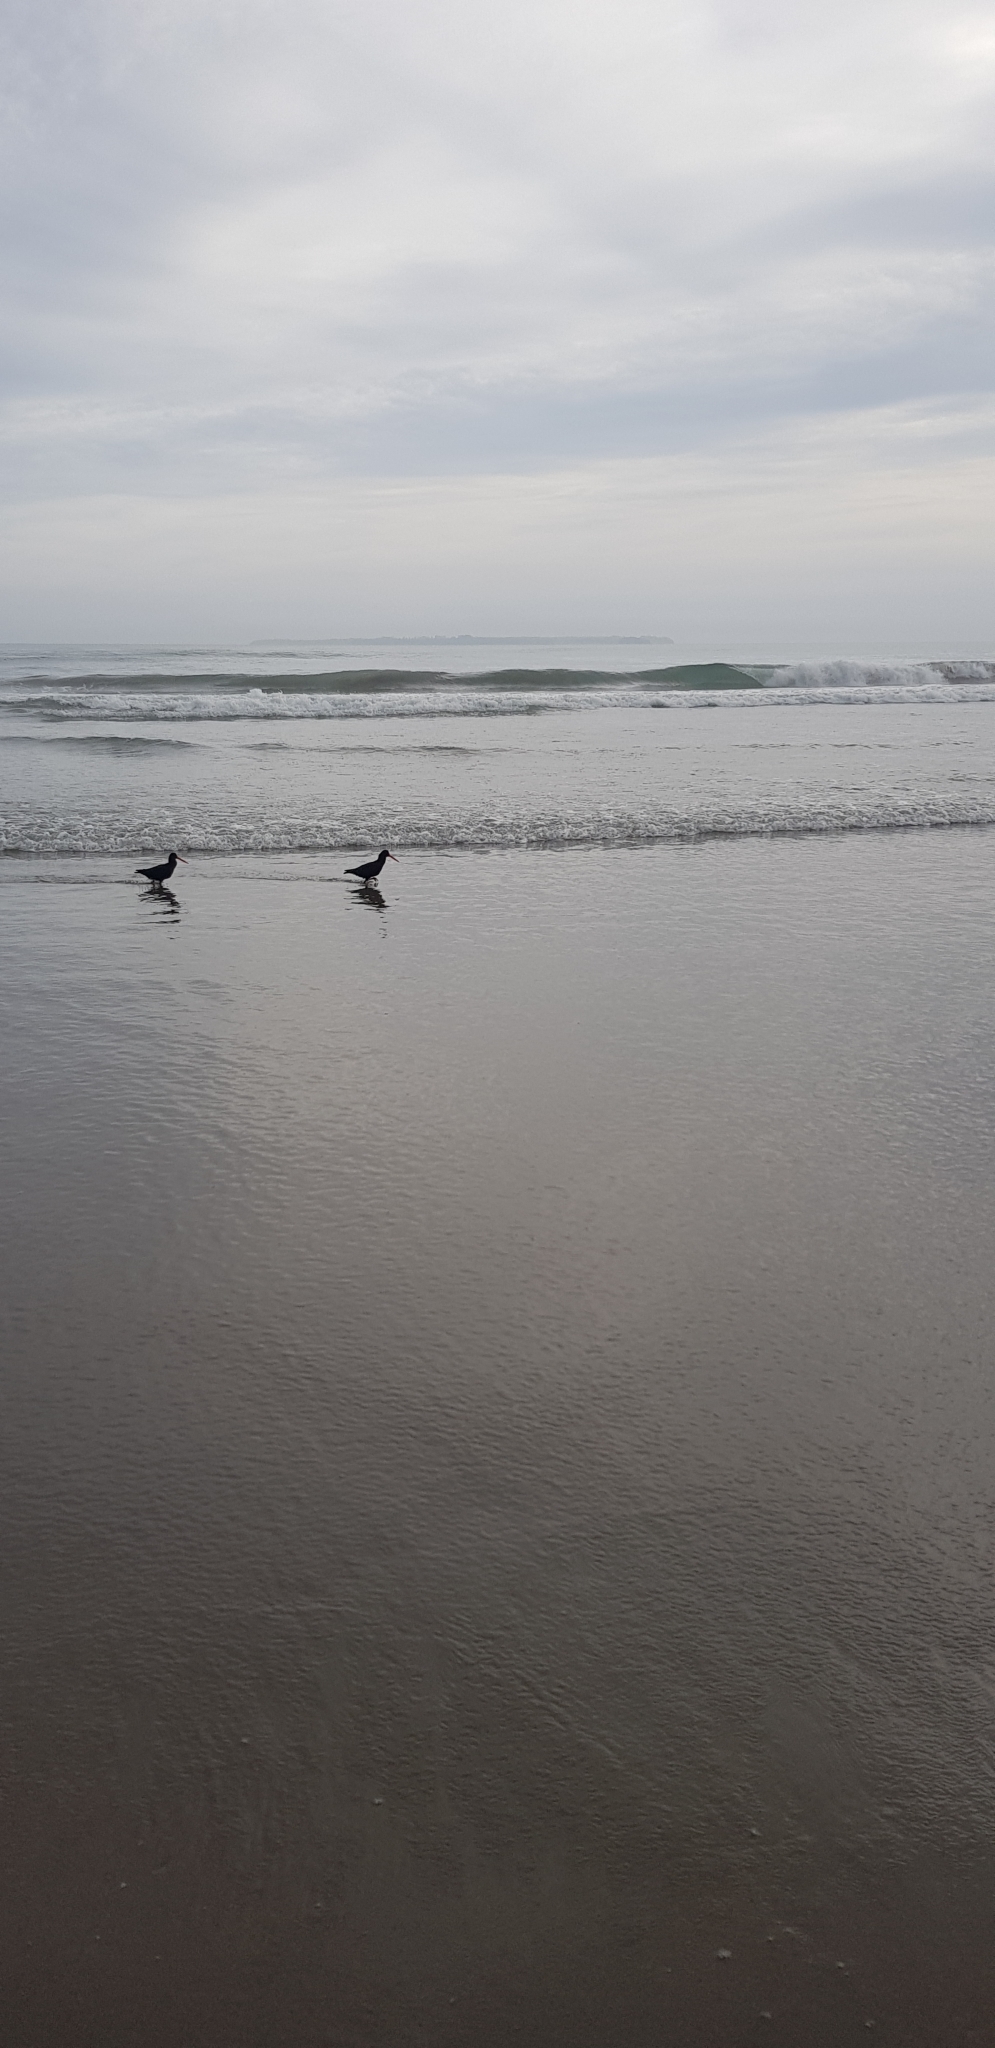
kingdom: Animalia
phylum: Chordata
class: Aves
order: Charadriiformes
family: Haematopodidae
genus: Haematopus
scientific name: Haematopus unicolor
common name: Variable oystercatcher
